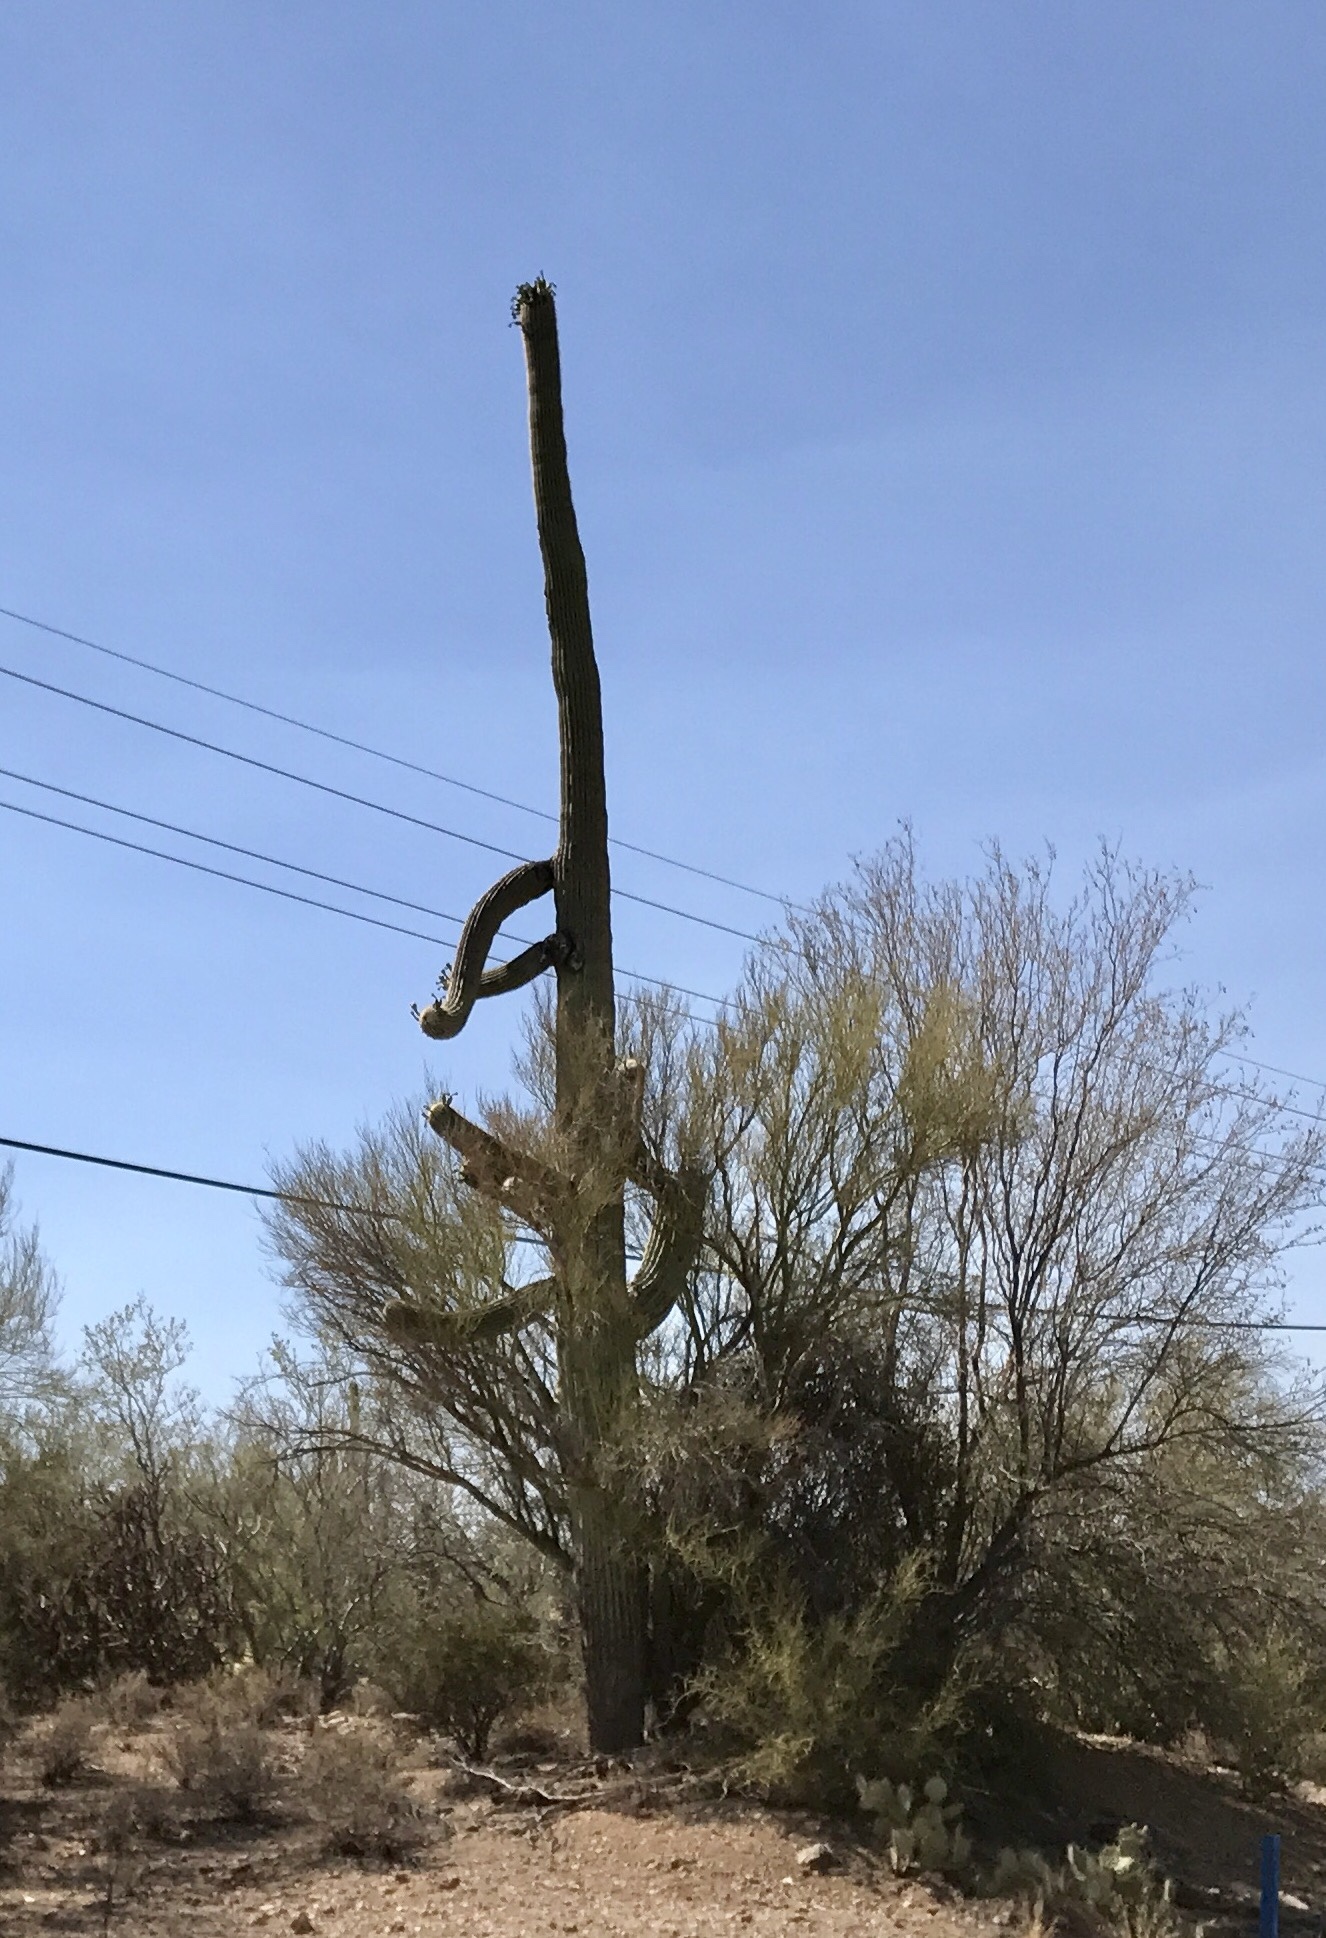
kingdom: Plantae
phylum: Tracheophyta
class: Magnoliopsida
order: Caryophyllales
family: Cactaceae
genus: Carnegiea
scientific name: Carnegiea gigantea
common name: Saguaro
